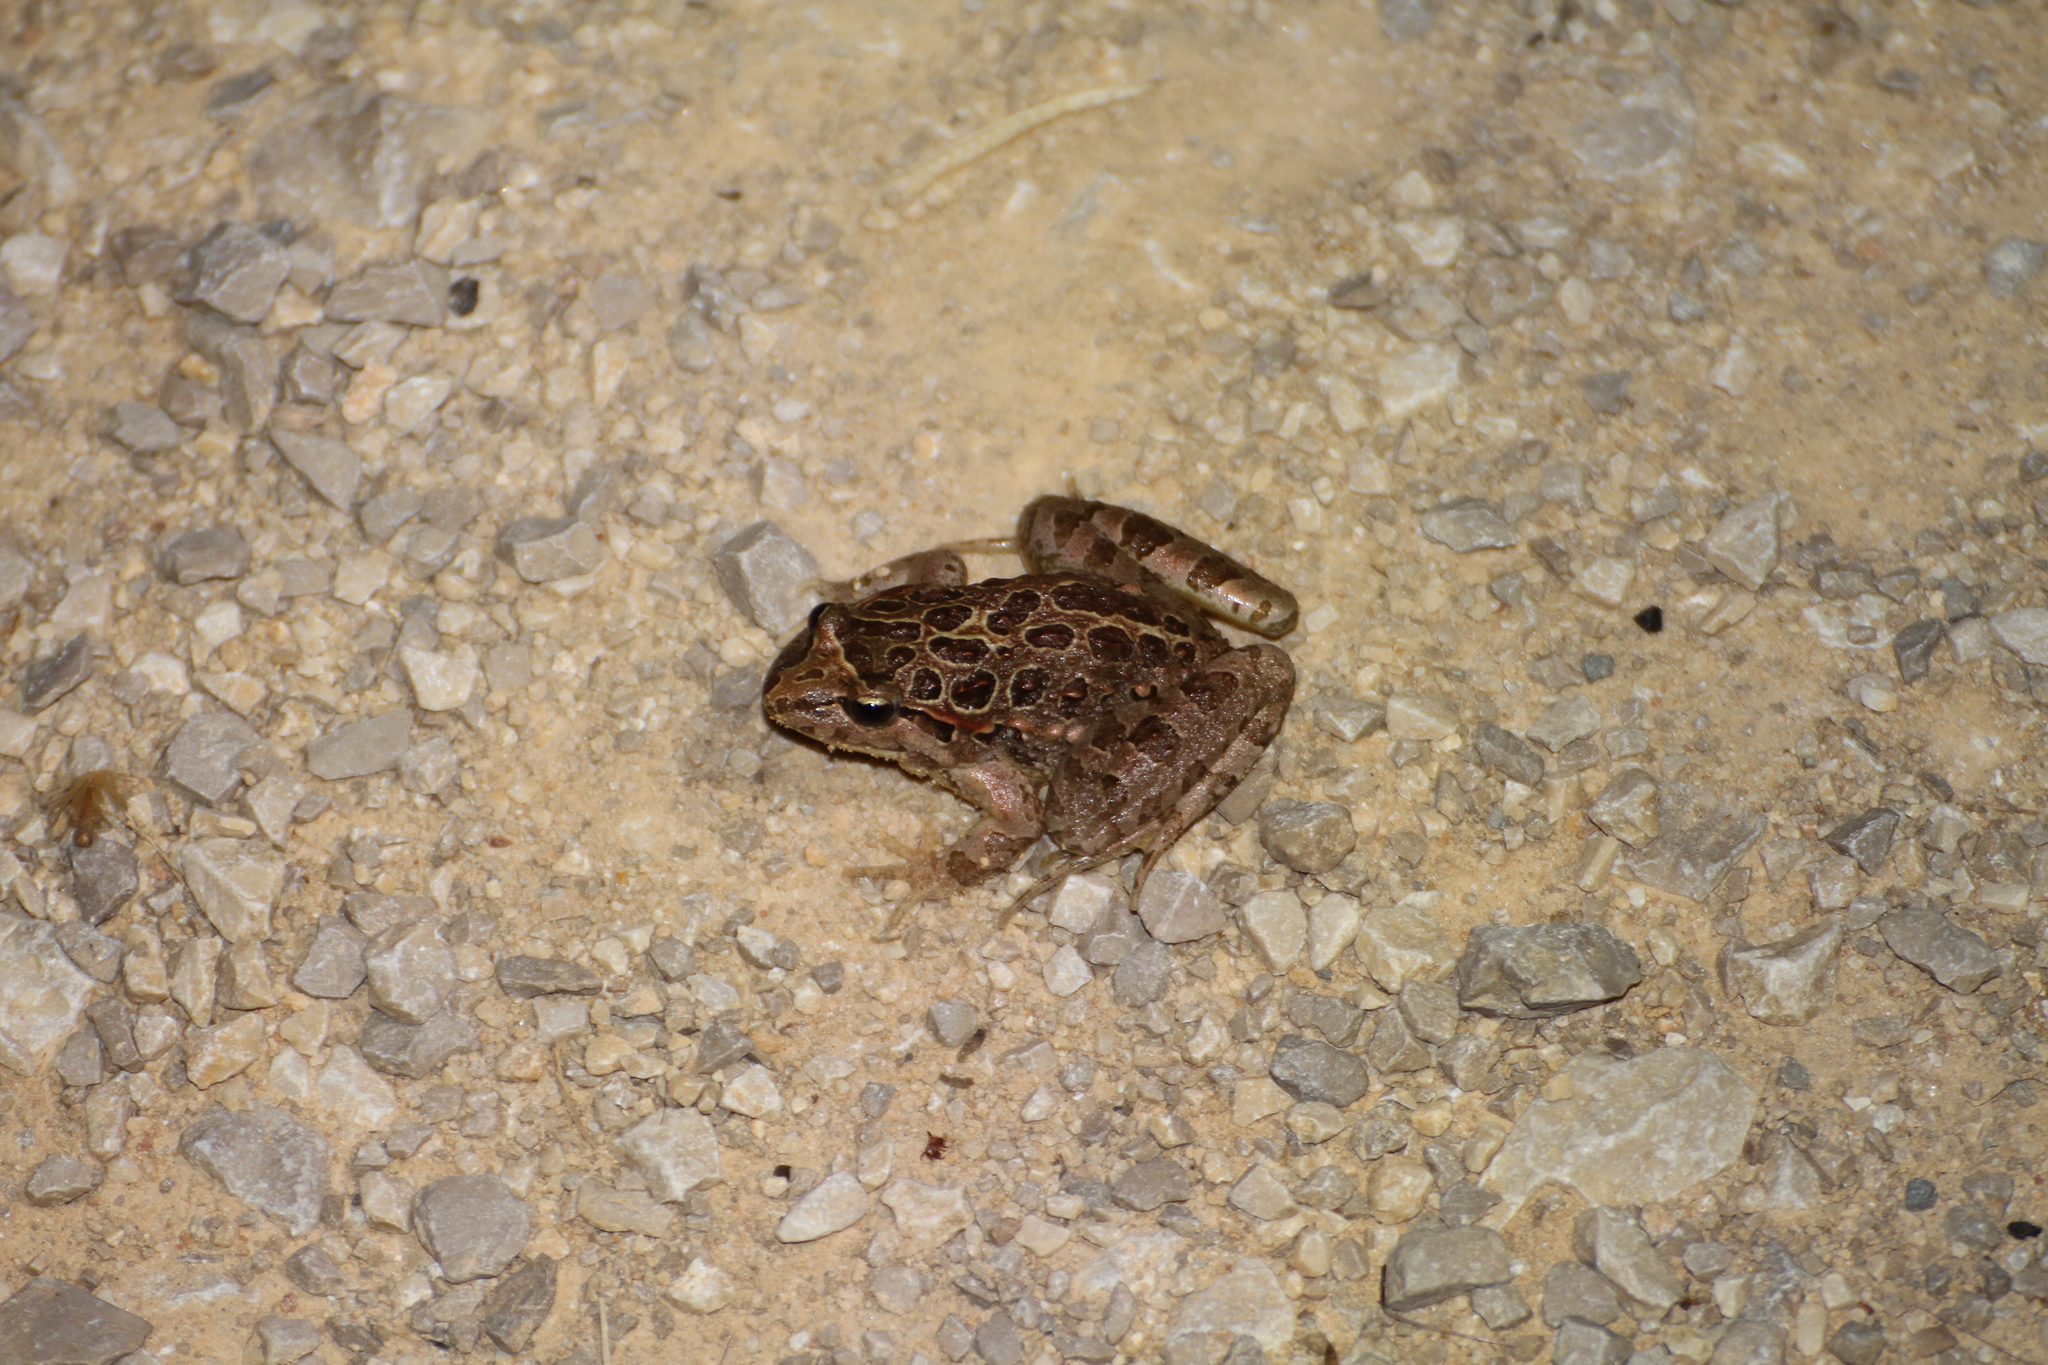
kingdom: Animalia
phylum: Chordata
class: Amphibia
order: Anura
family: Alytidae
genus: Discoglossus
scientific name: Discoglossus pictus
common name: Painted frog
